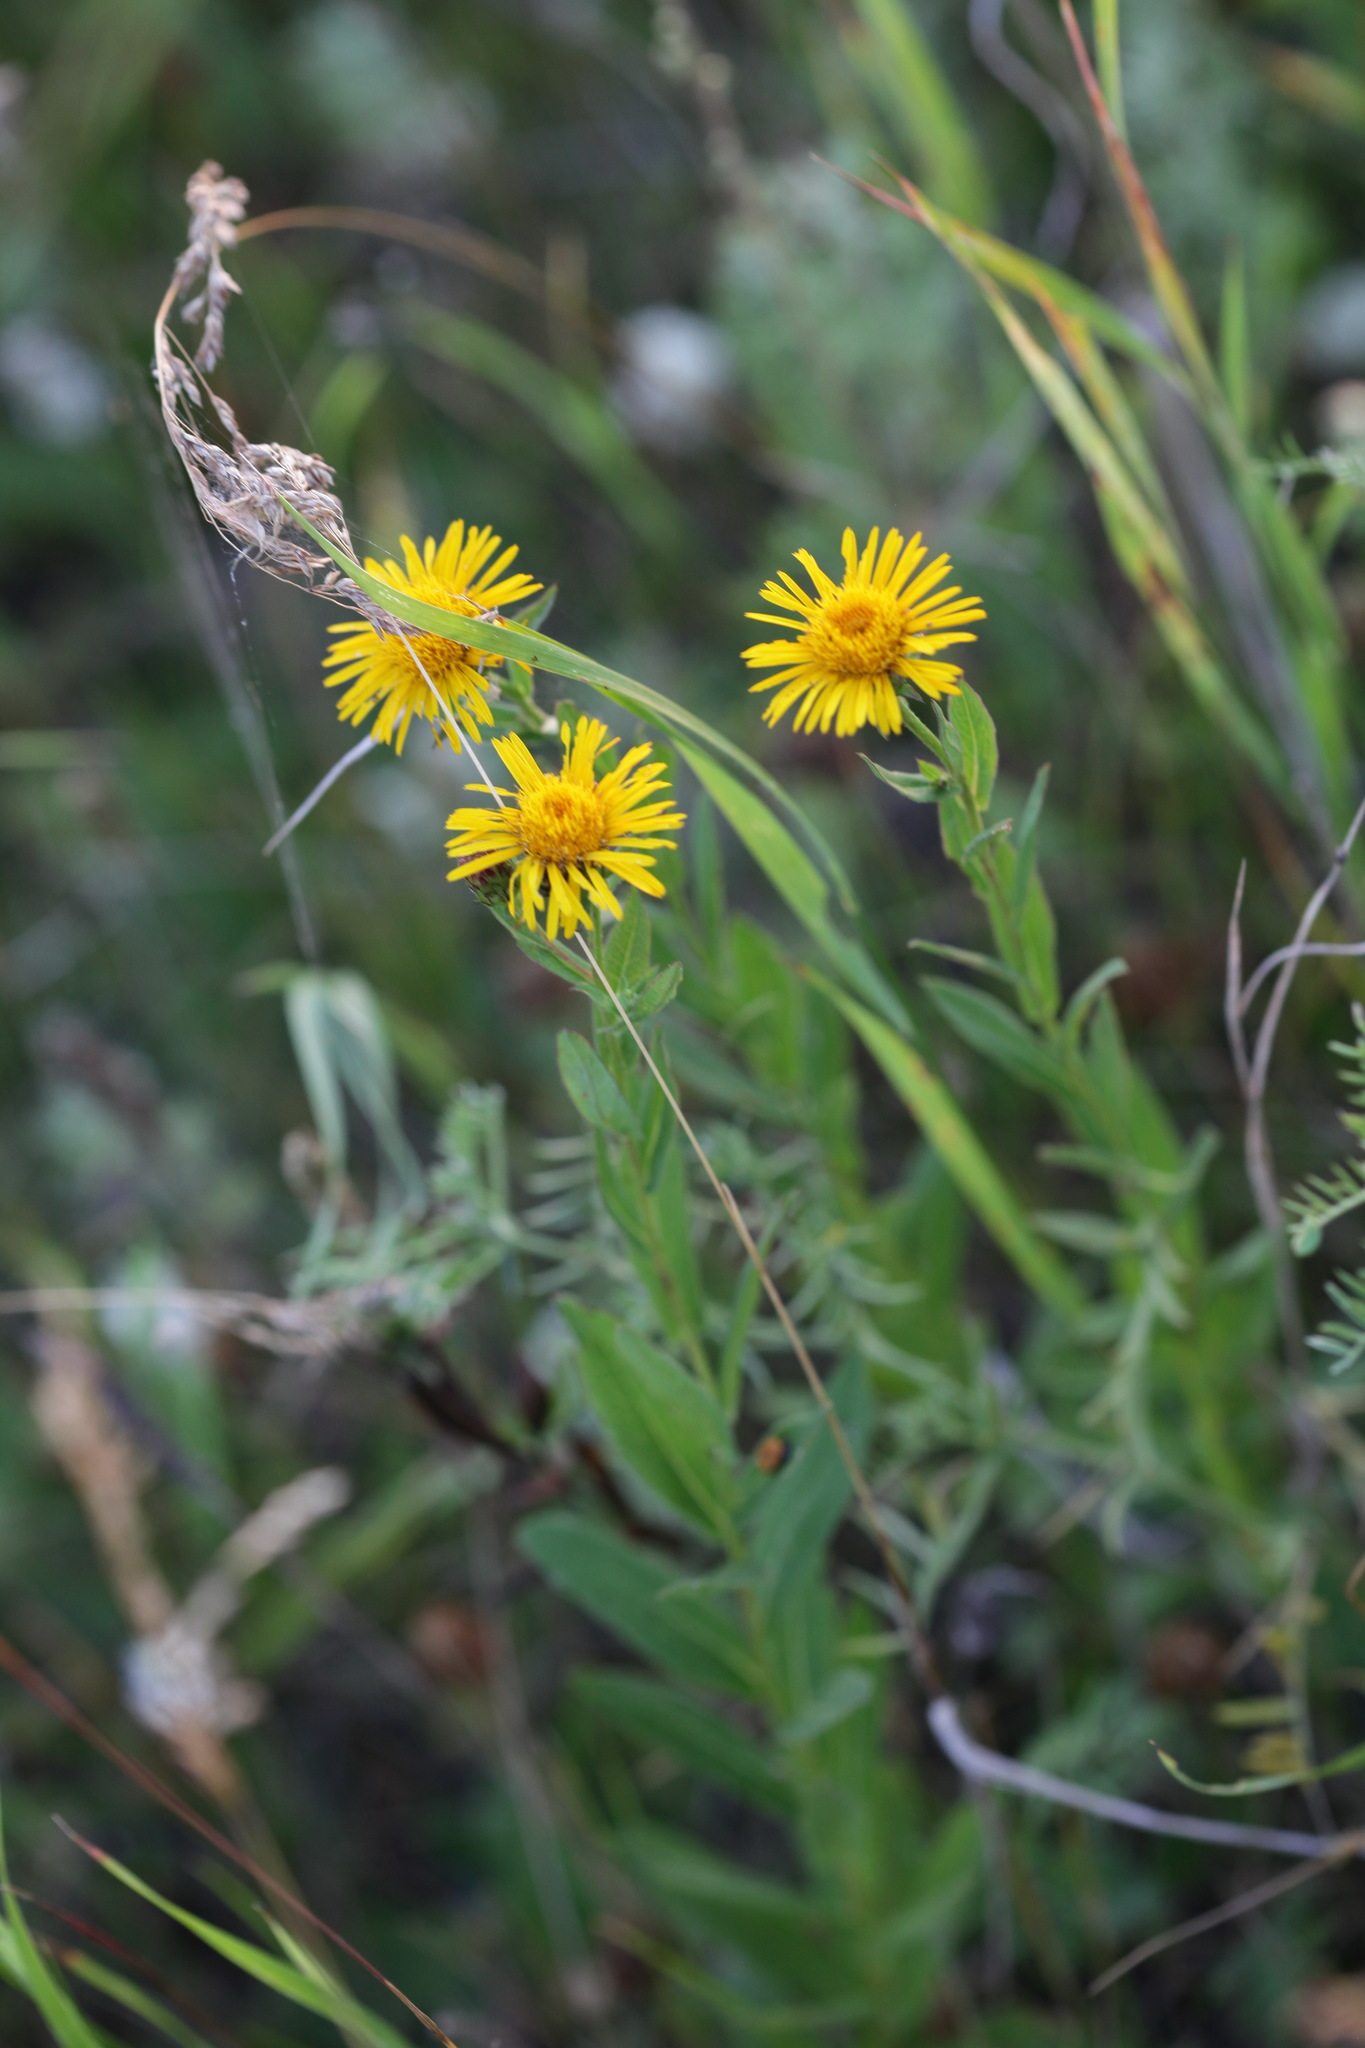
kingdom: Plantae
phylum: Tracheophyta
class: Magnoliopsida
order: Asterales
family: Asteraceae
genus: Pentanema
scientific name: Pentanema britannicum
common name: British elecampane
